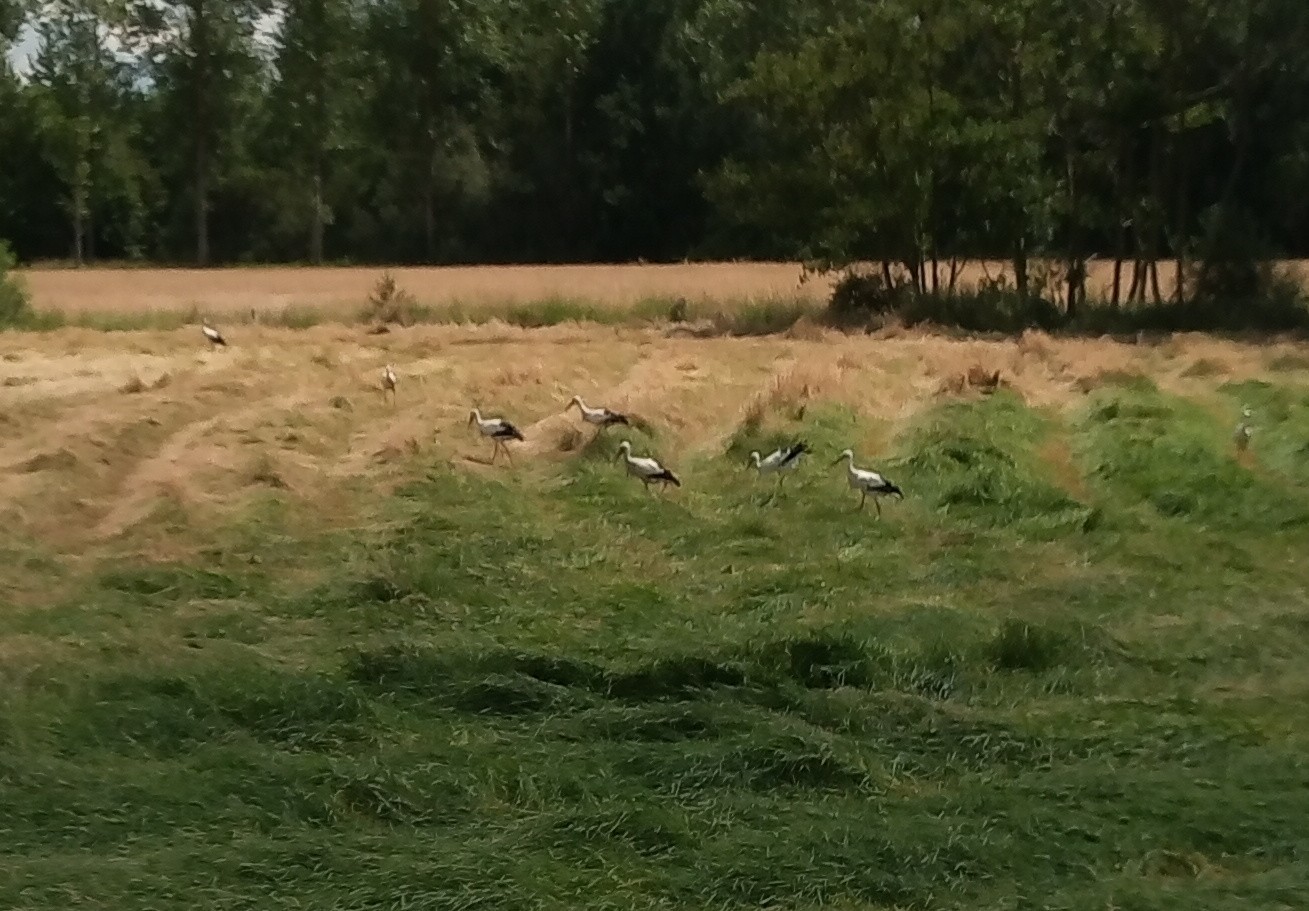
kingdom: Animalia
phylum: Chordata
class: Aves
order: Ciconiiformes
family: Ciconiidae
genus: Ciconia
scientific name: Ciconia ciconia
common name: White stork
